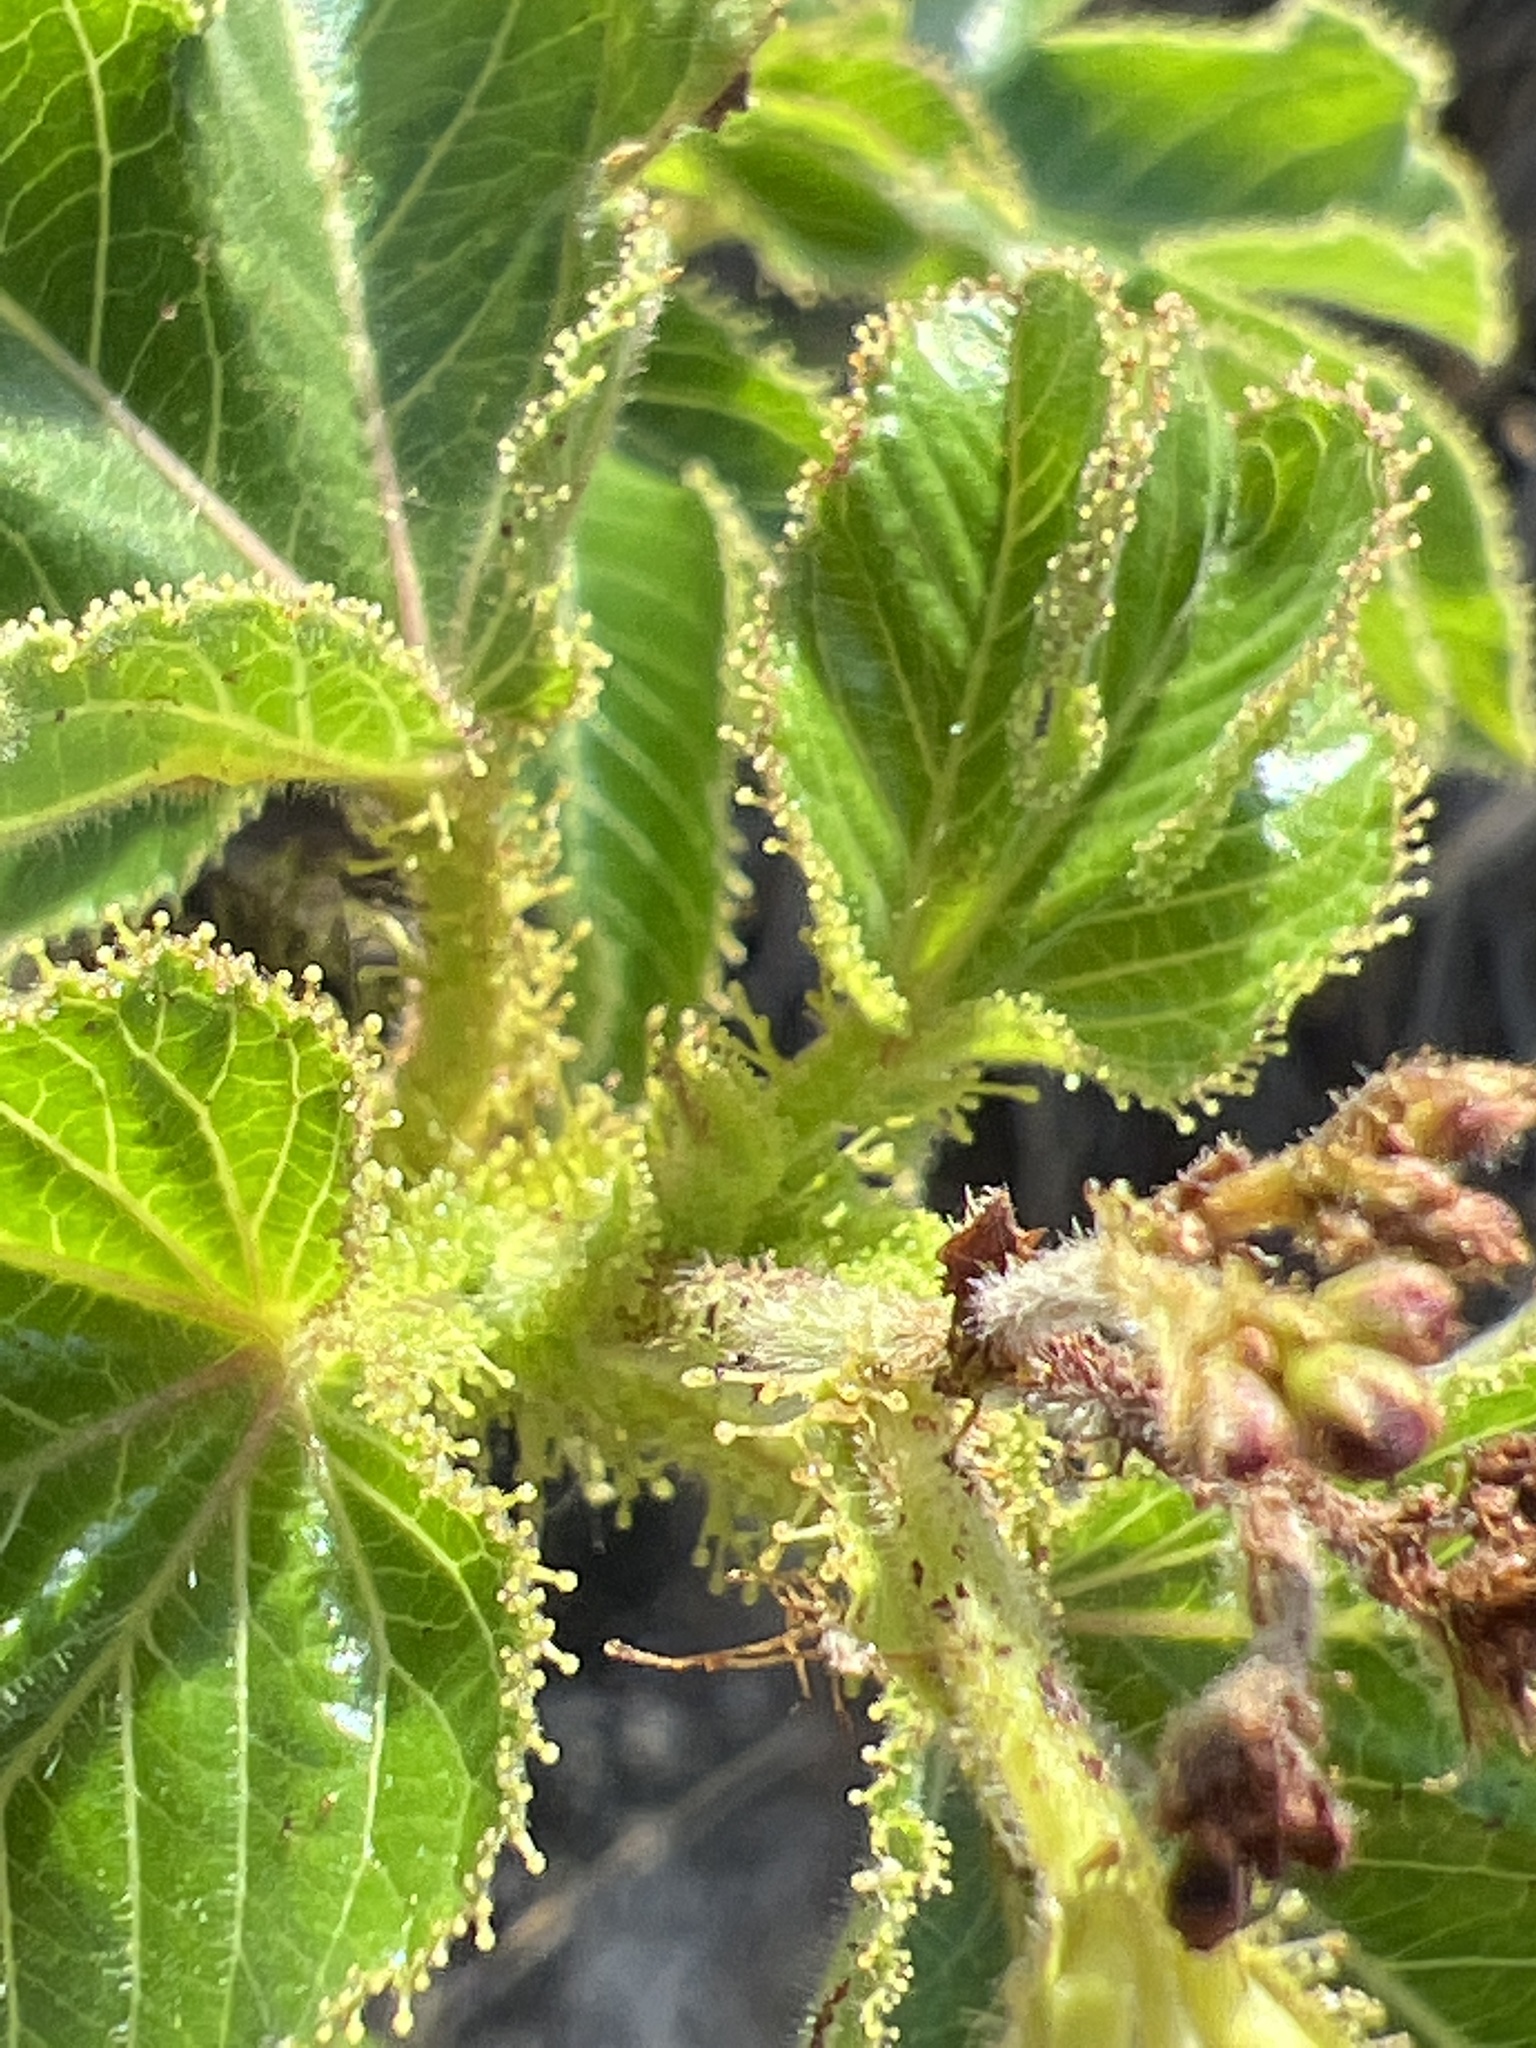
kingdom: Plantae
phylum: Tracheophyta
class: Magnoliopsida
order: Malpighiales
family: Euphorbiaceae
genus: Jatropha
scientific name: Jatropha gossypiifolia
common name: Bellyache bush
